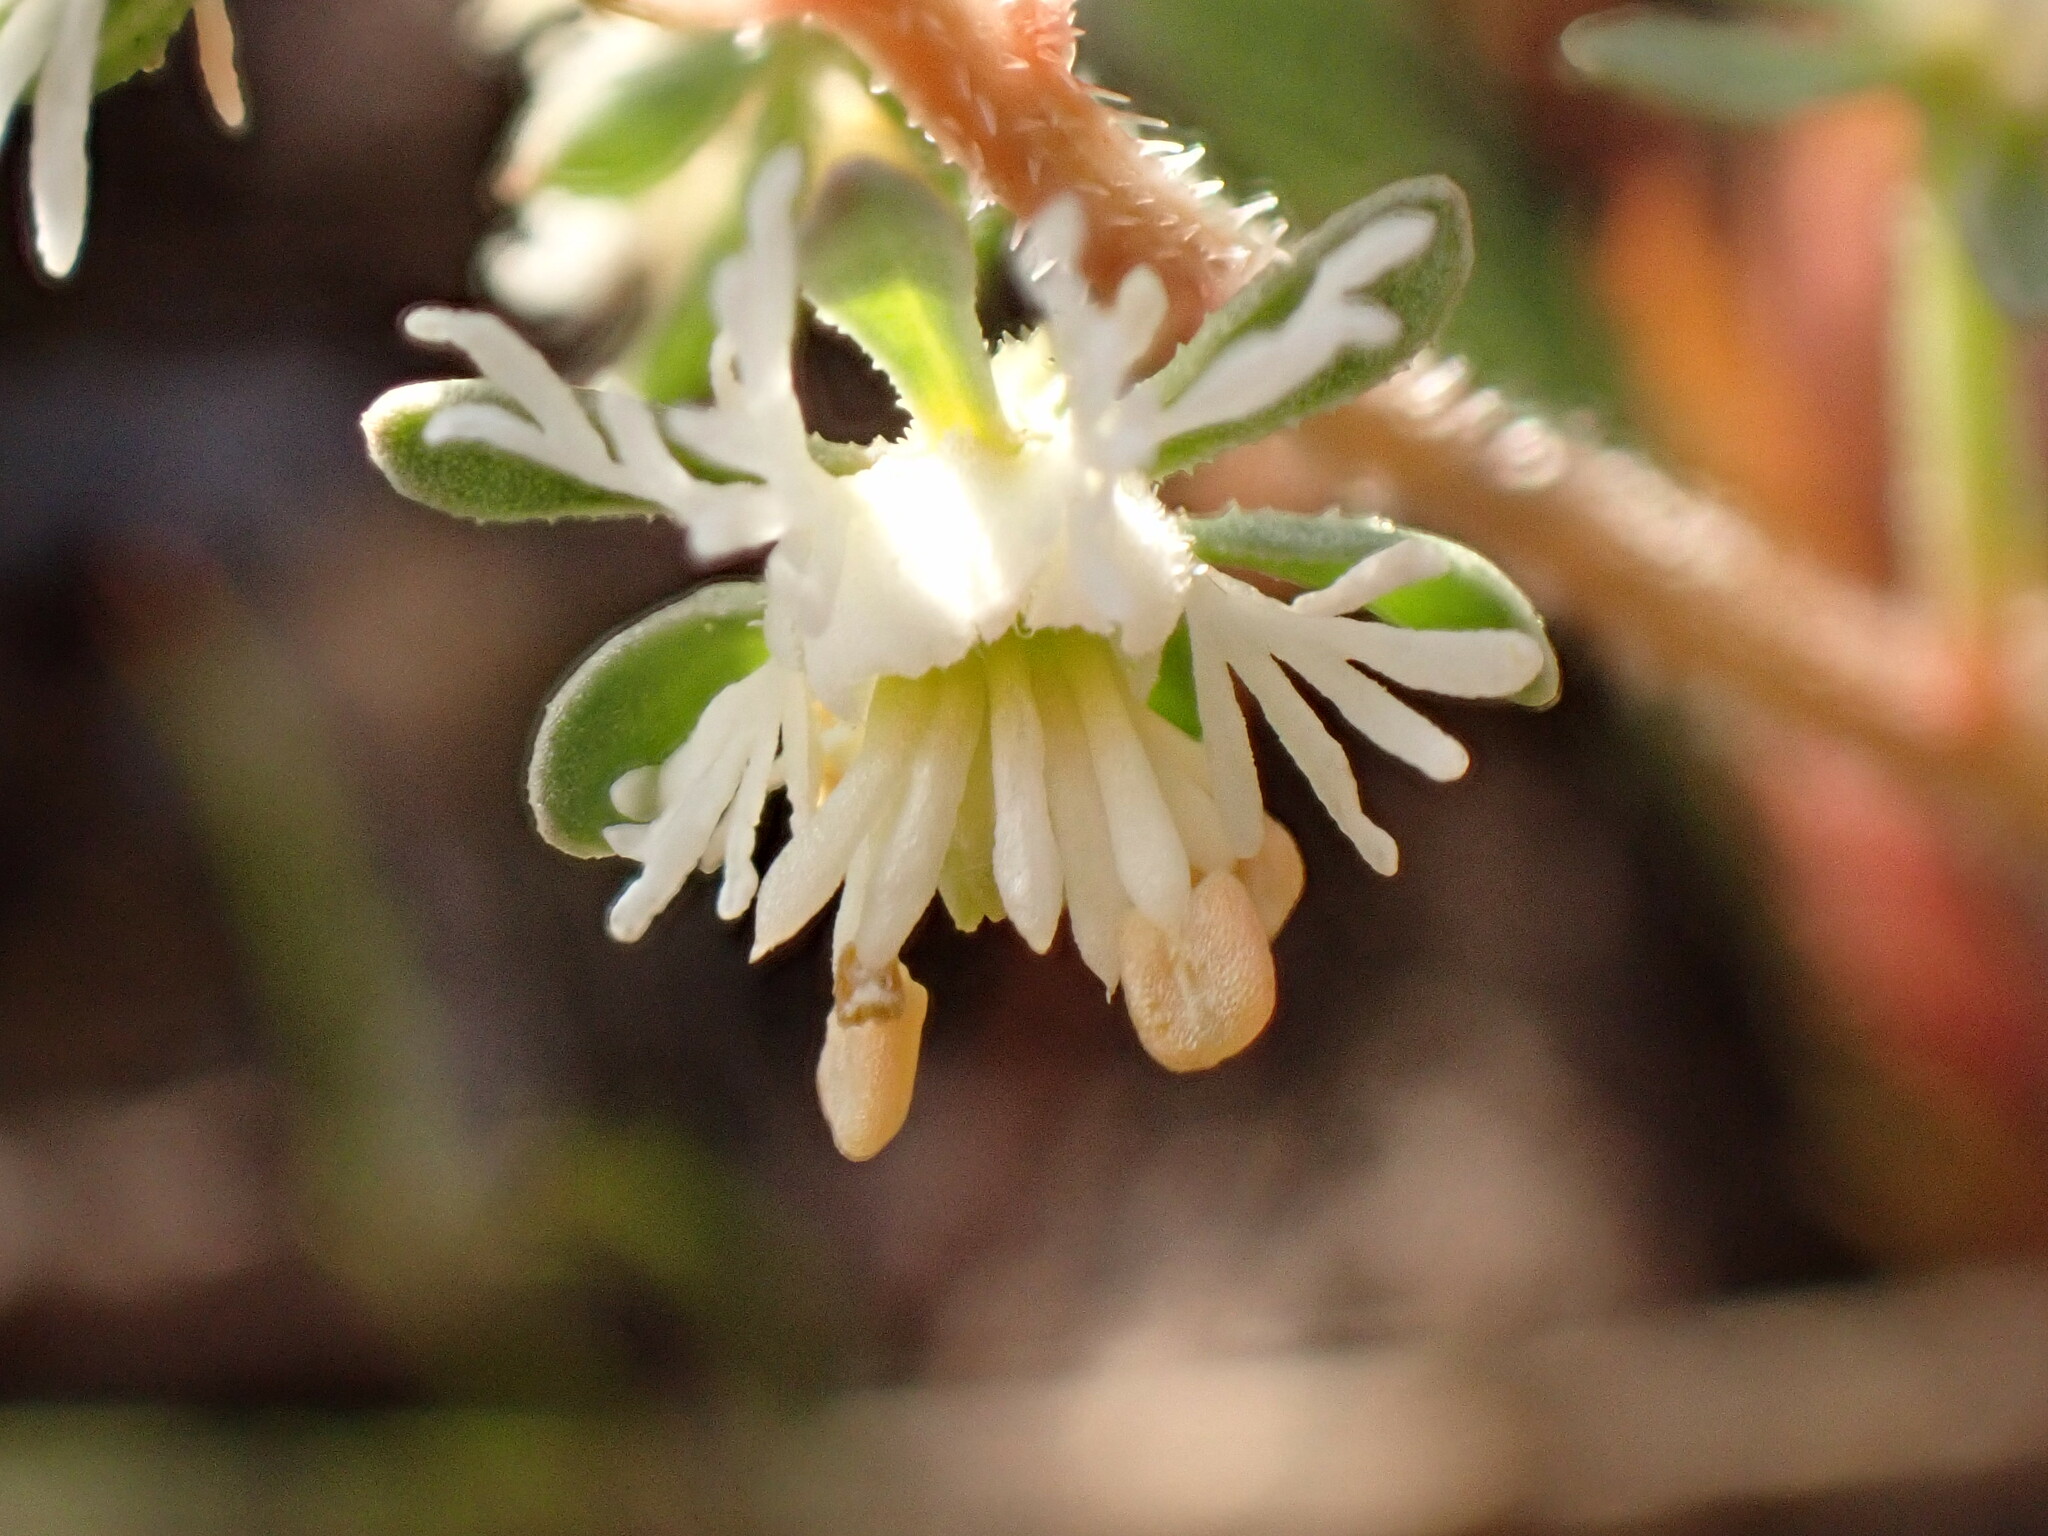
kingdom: Plantae
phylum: Tracheophyta
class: Magnoliopsida
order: Brassicales
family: Resedaceae
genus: Reseda
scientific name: Reseda phyteuma
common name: Corn mignonette
